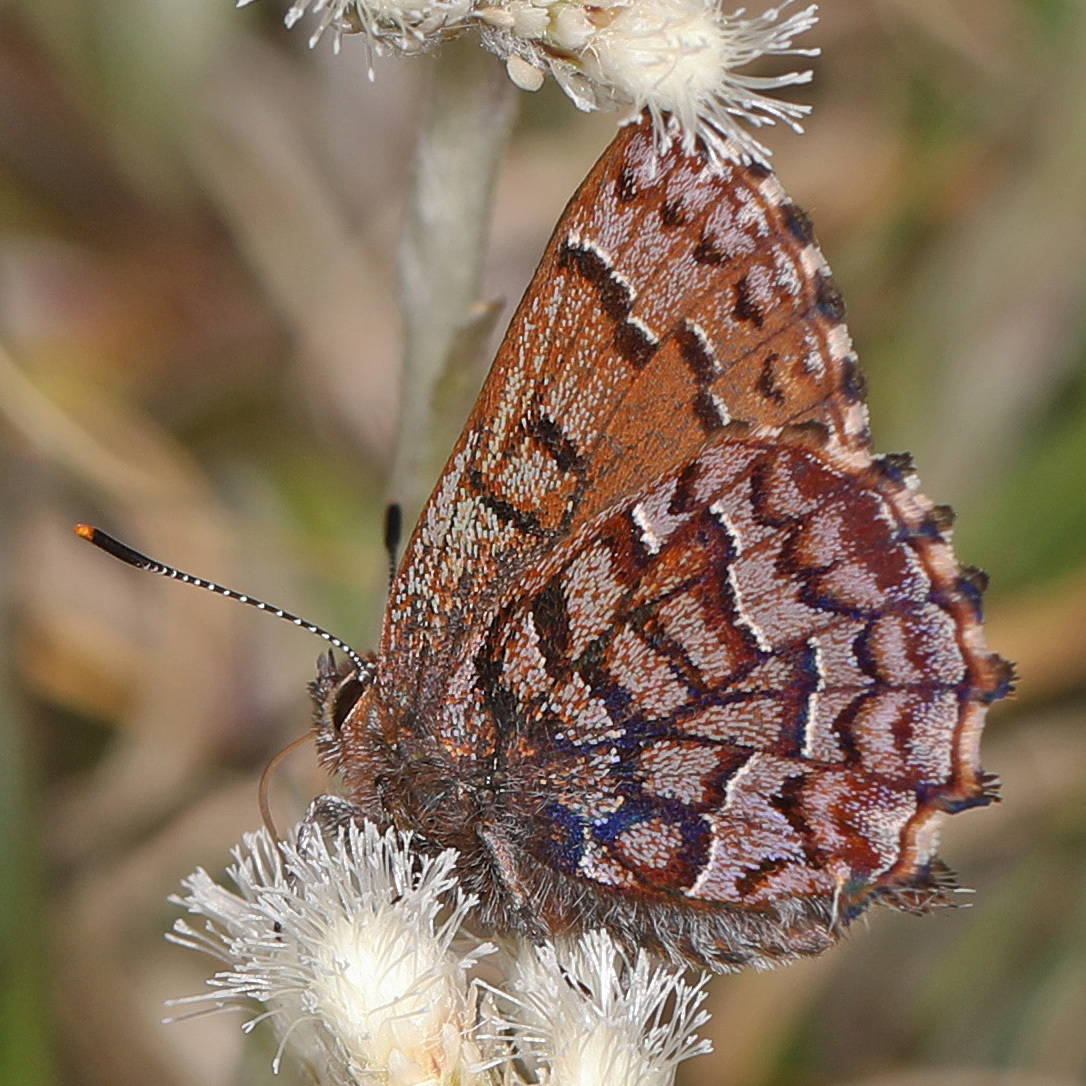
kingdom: Animalia
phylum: Arthropoda
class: Insecta
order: Lepidoptera
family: Lycaenidae
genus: Incisalia
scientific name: Incisalia niphon
